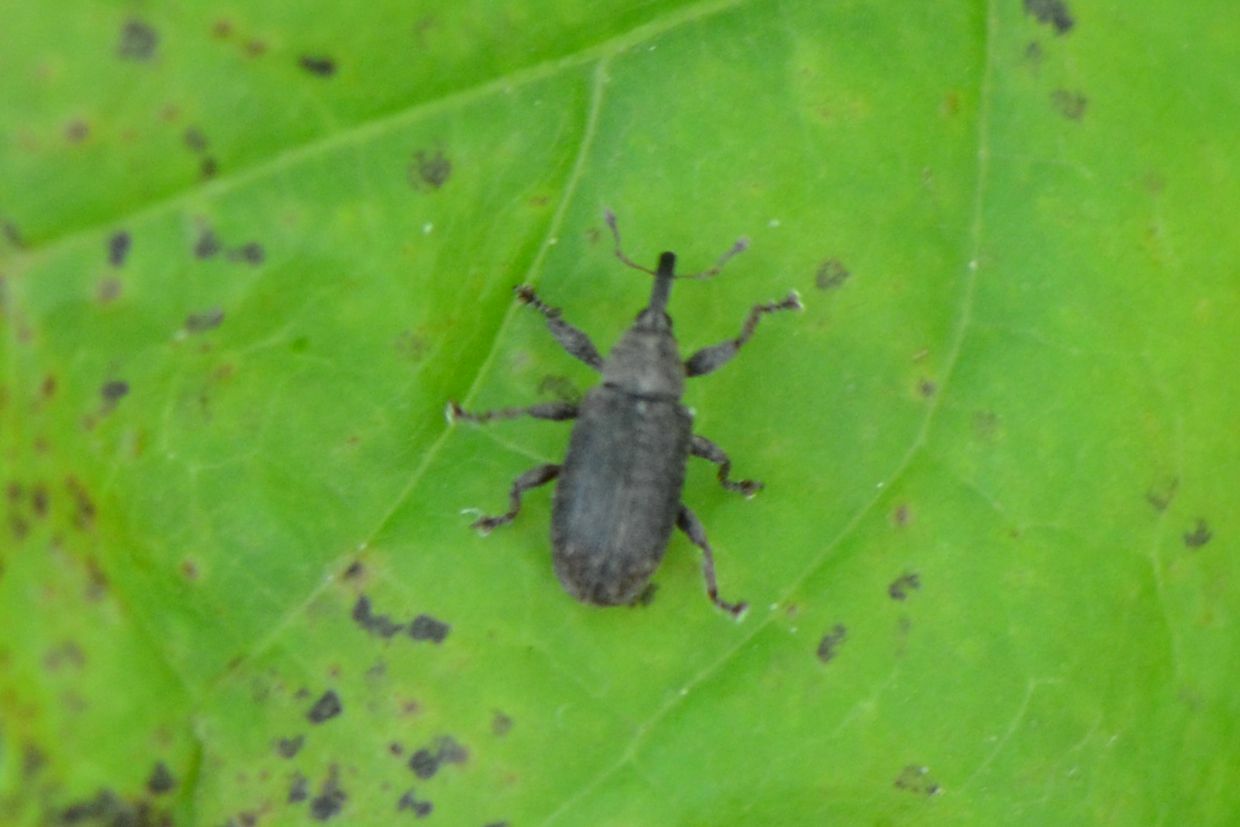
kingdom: Animalia
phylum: Arthropoda
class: Insecta
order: Coleoptera
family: Curculionidae
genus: Bradybatus
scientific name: Bradybatus kellneri
